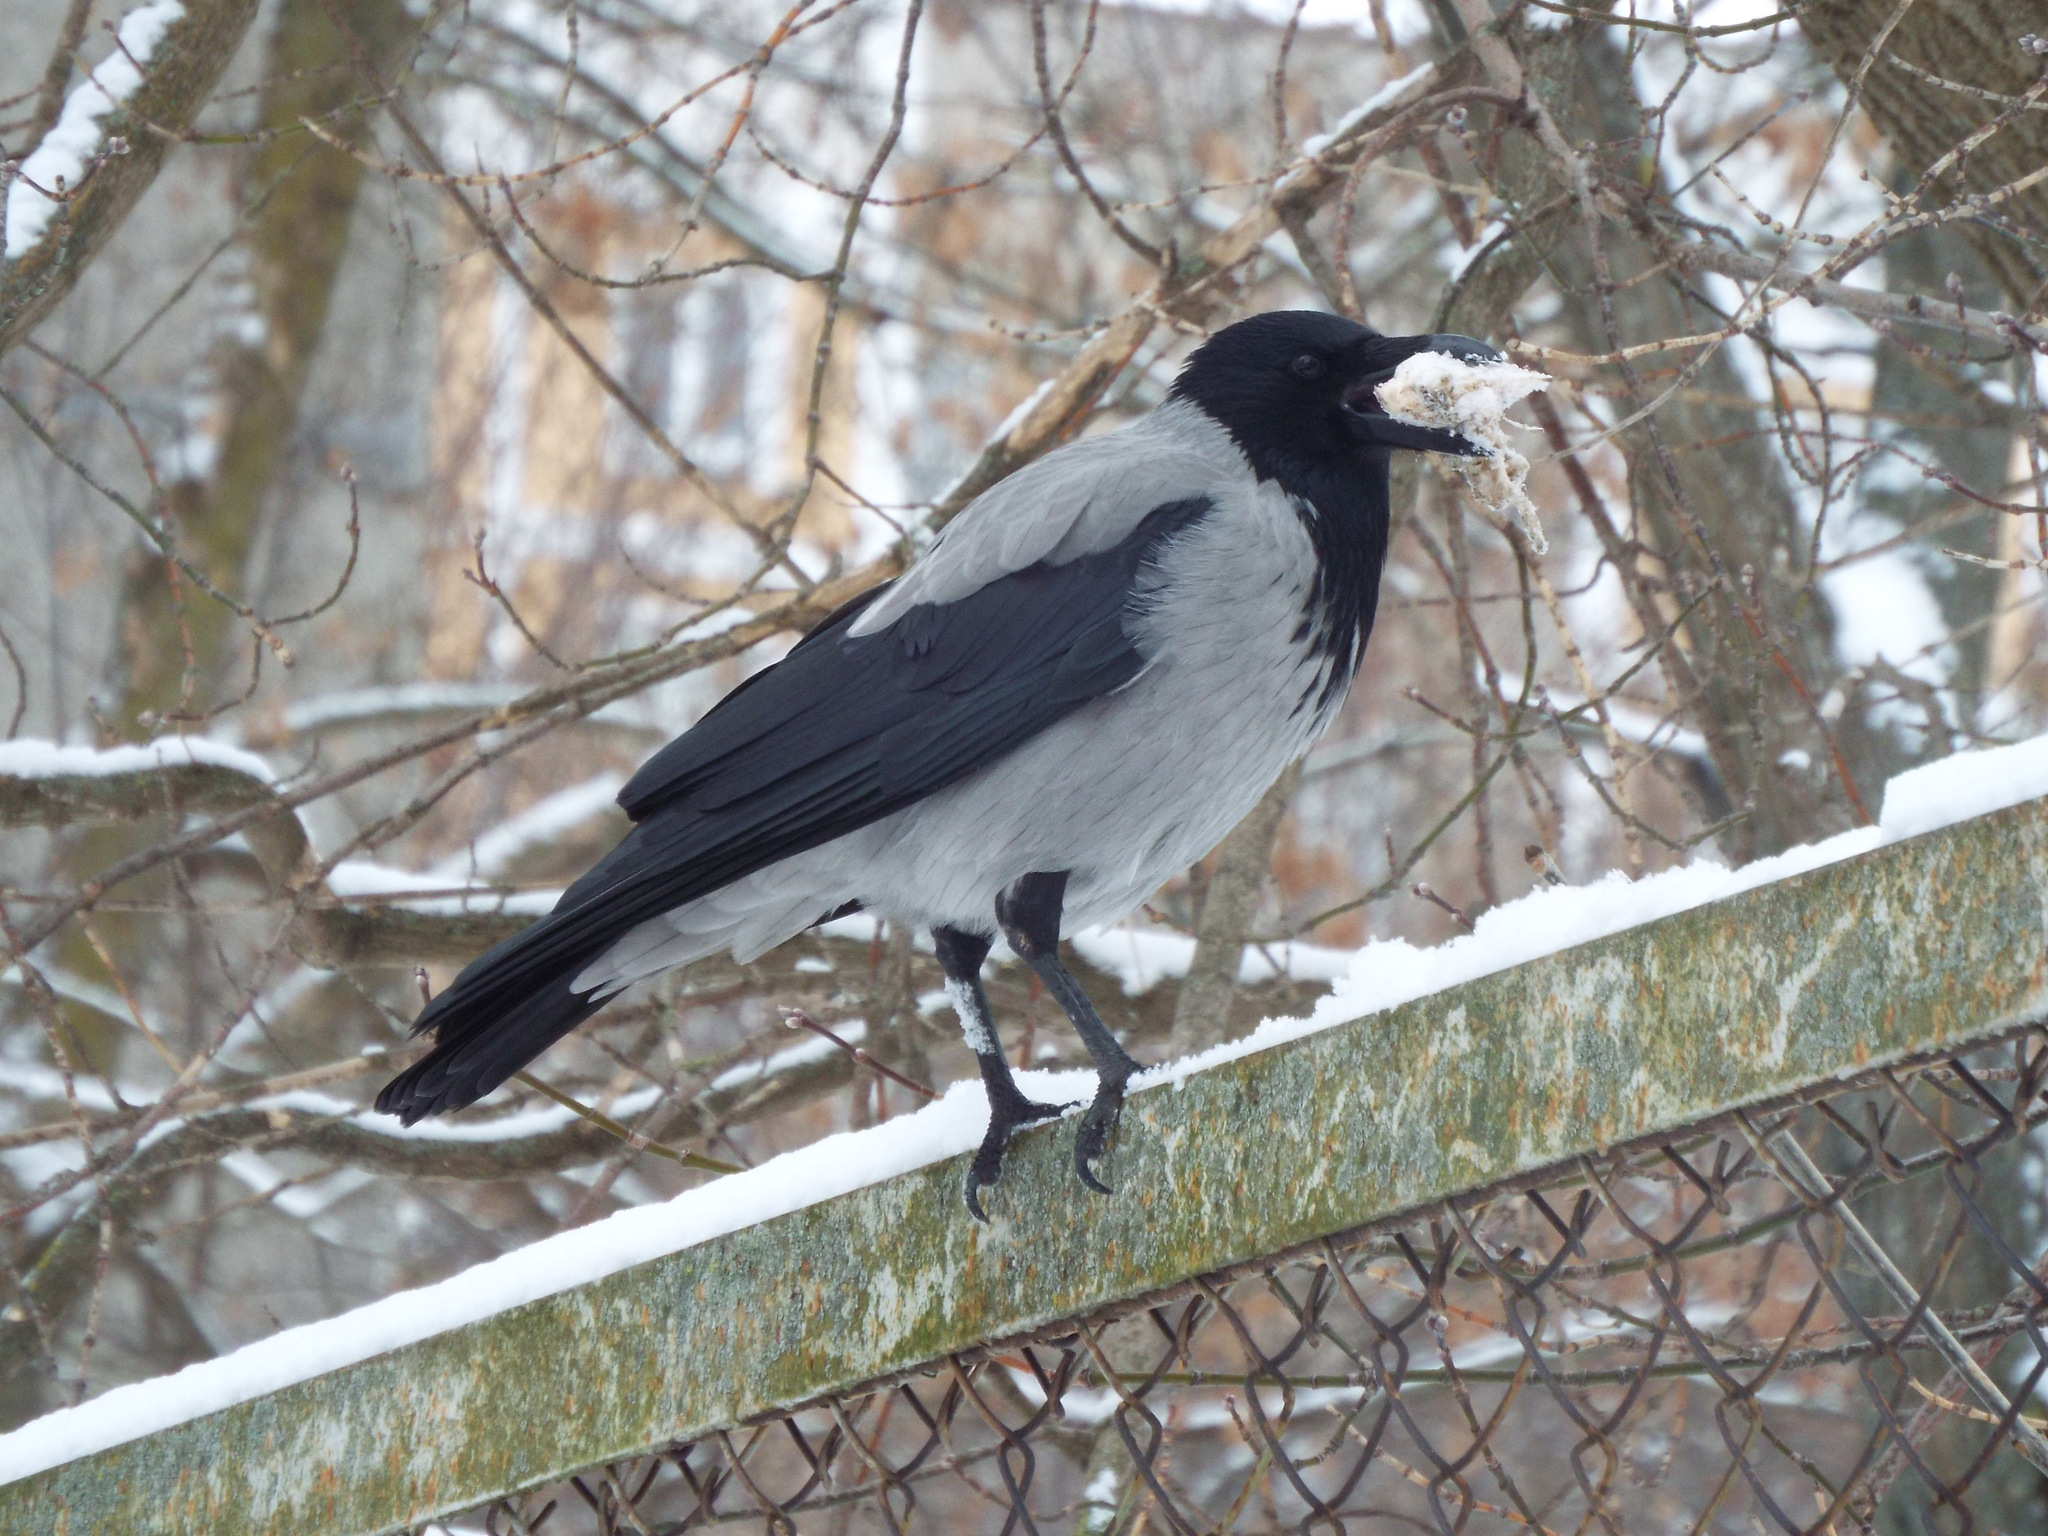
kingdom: Animalia
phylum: Chordata
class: Aves
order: Passeriformes
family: Corvidae
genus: Corvus
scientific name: Corvus cornix
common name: Hooded crow
